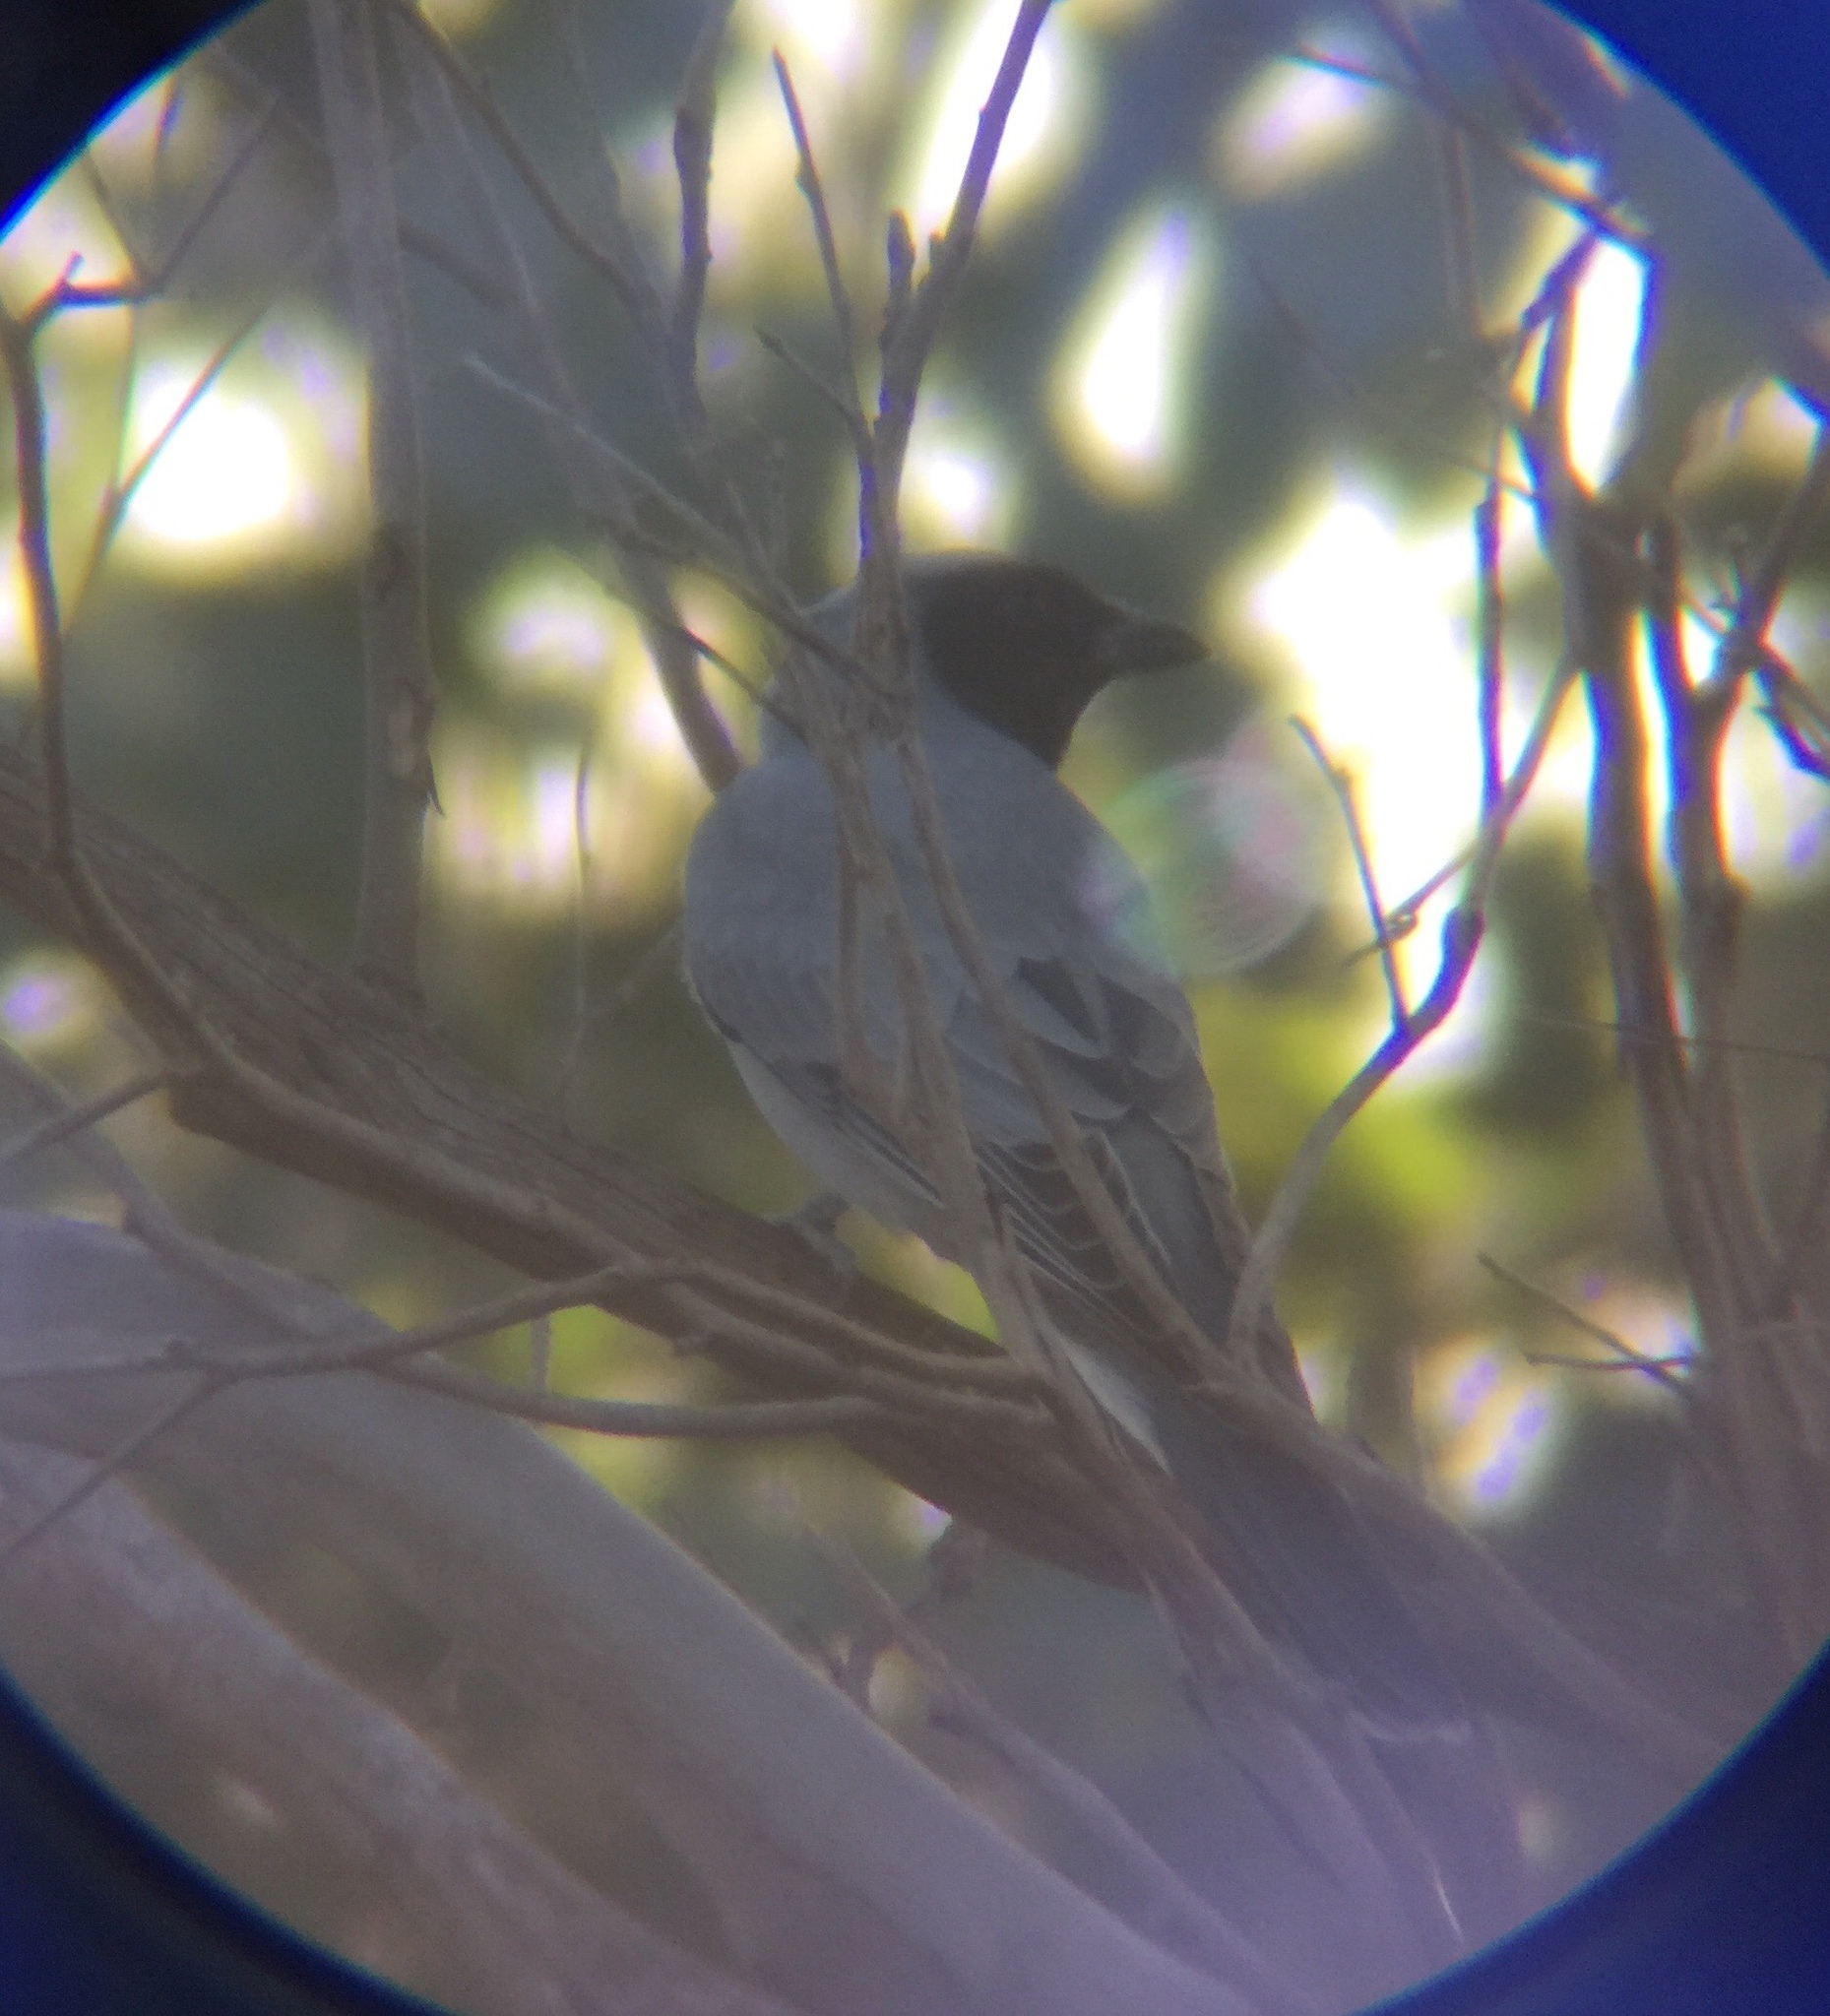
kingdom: Animalia
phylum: Chordata
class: Aves
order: Passeriformes
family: Campephagidae
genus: Coracina
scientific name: Coracina novaehollandiae
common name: Black-faced cuckooshrike
